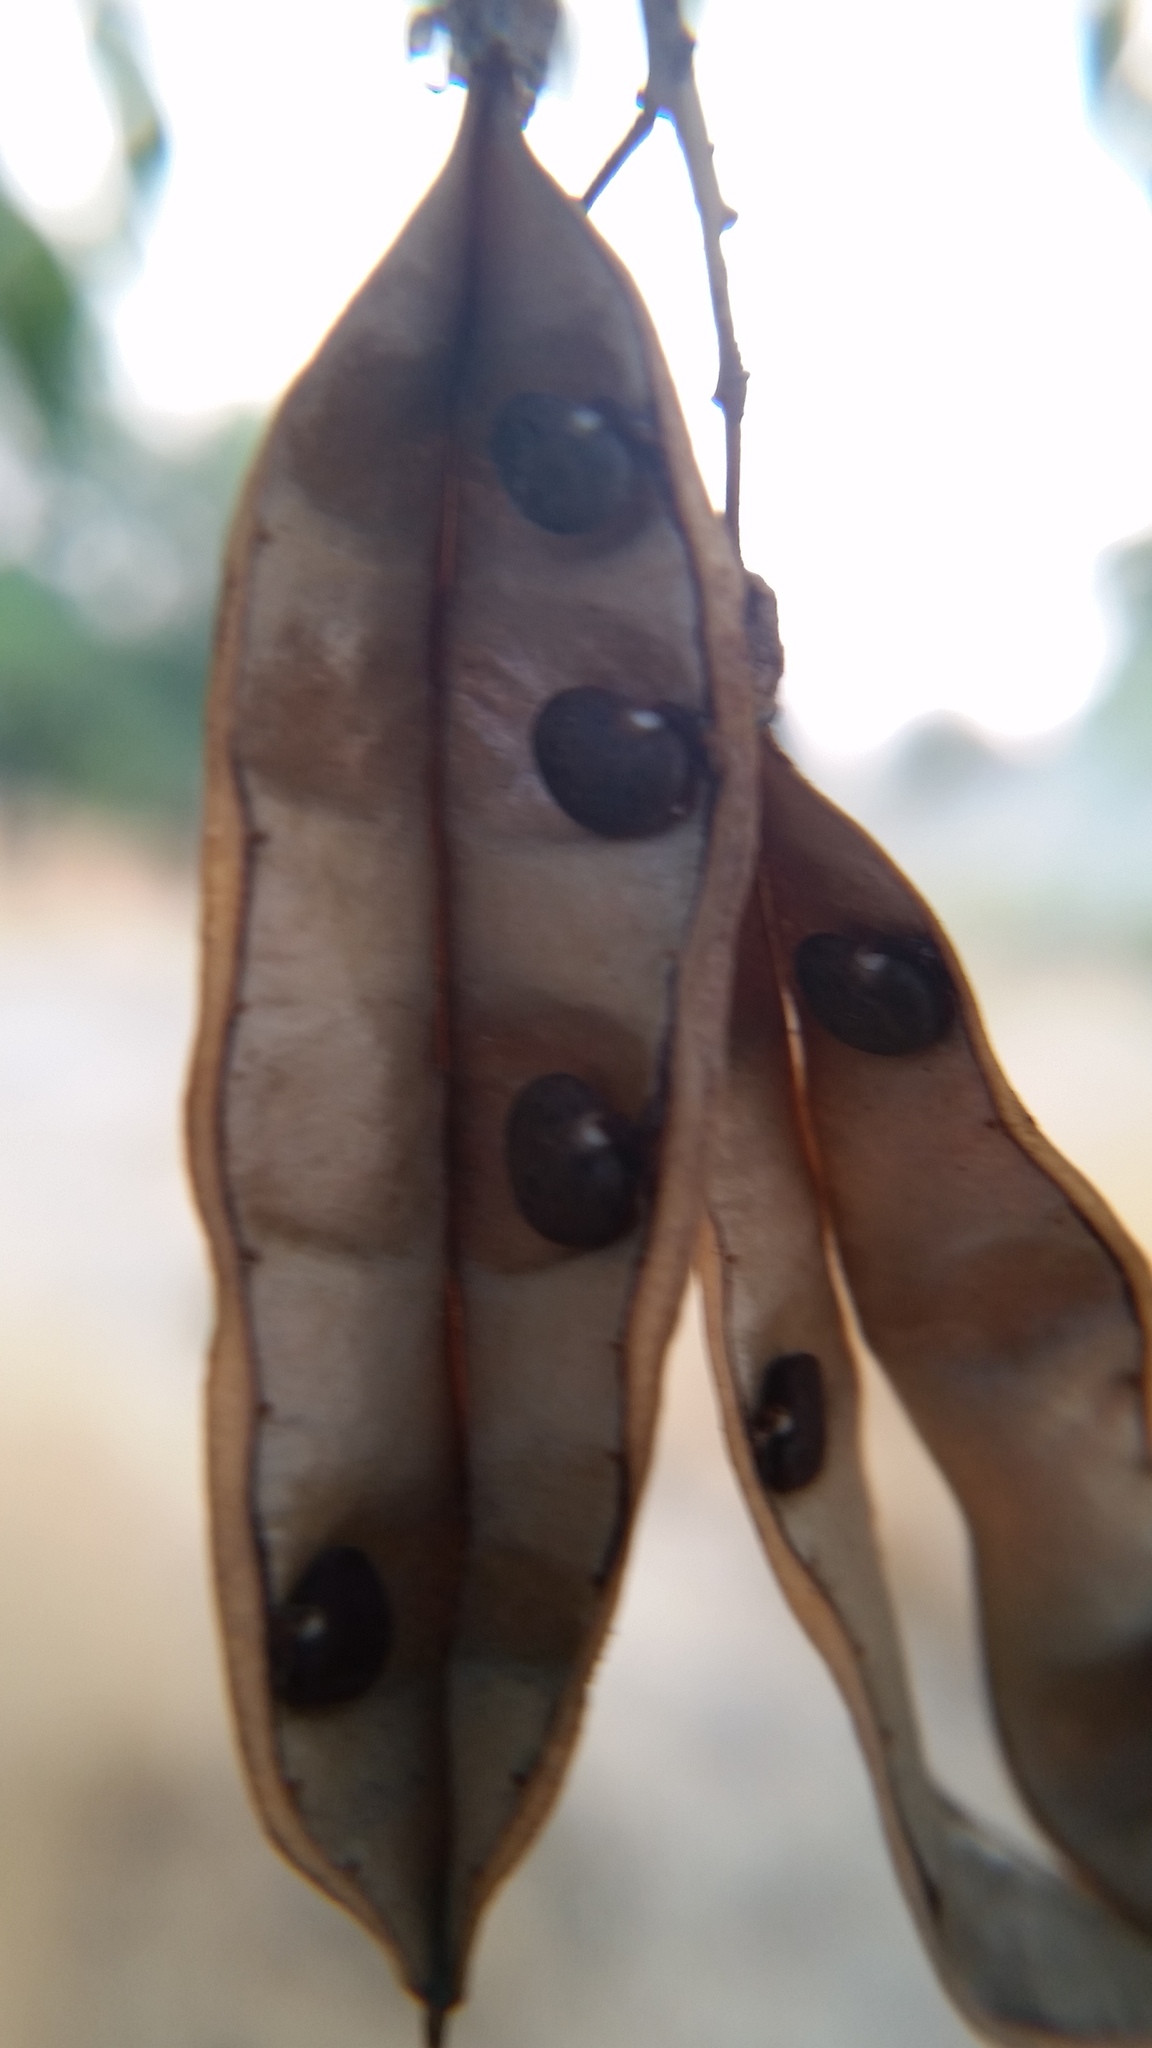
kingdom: Plantae
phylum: Tracheophyta
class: Magnoliopsida
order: Fabales
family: Fabaceae
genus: Robinia
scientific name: Robinia pseudoacacia
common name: Black locust
